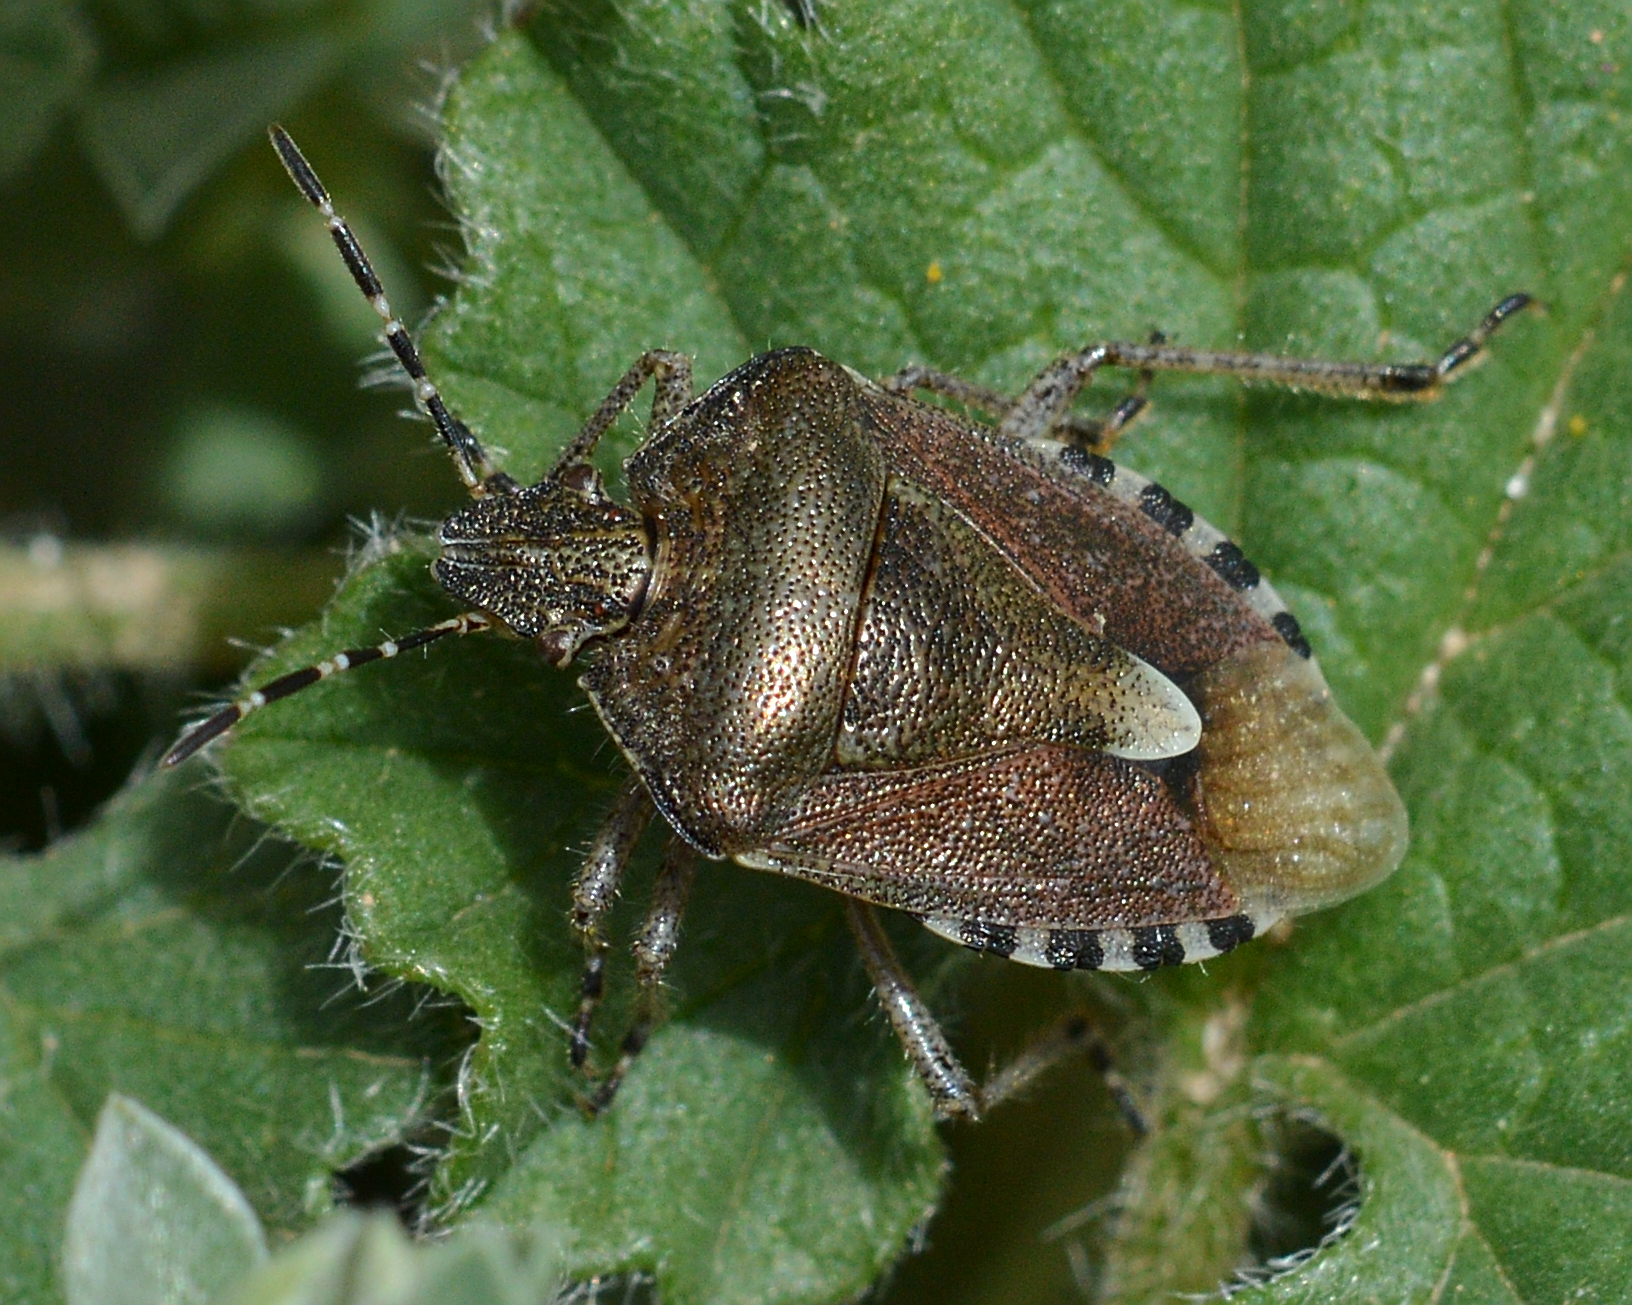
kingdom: Animalia
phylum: Arthropoda
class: Insecta
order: Hemiptera
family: Pentatomidae
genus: Dolycoris
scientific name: Dolycoris baccarum
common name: Sloe bug
